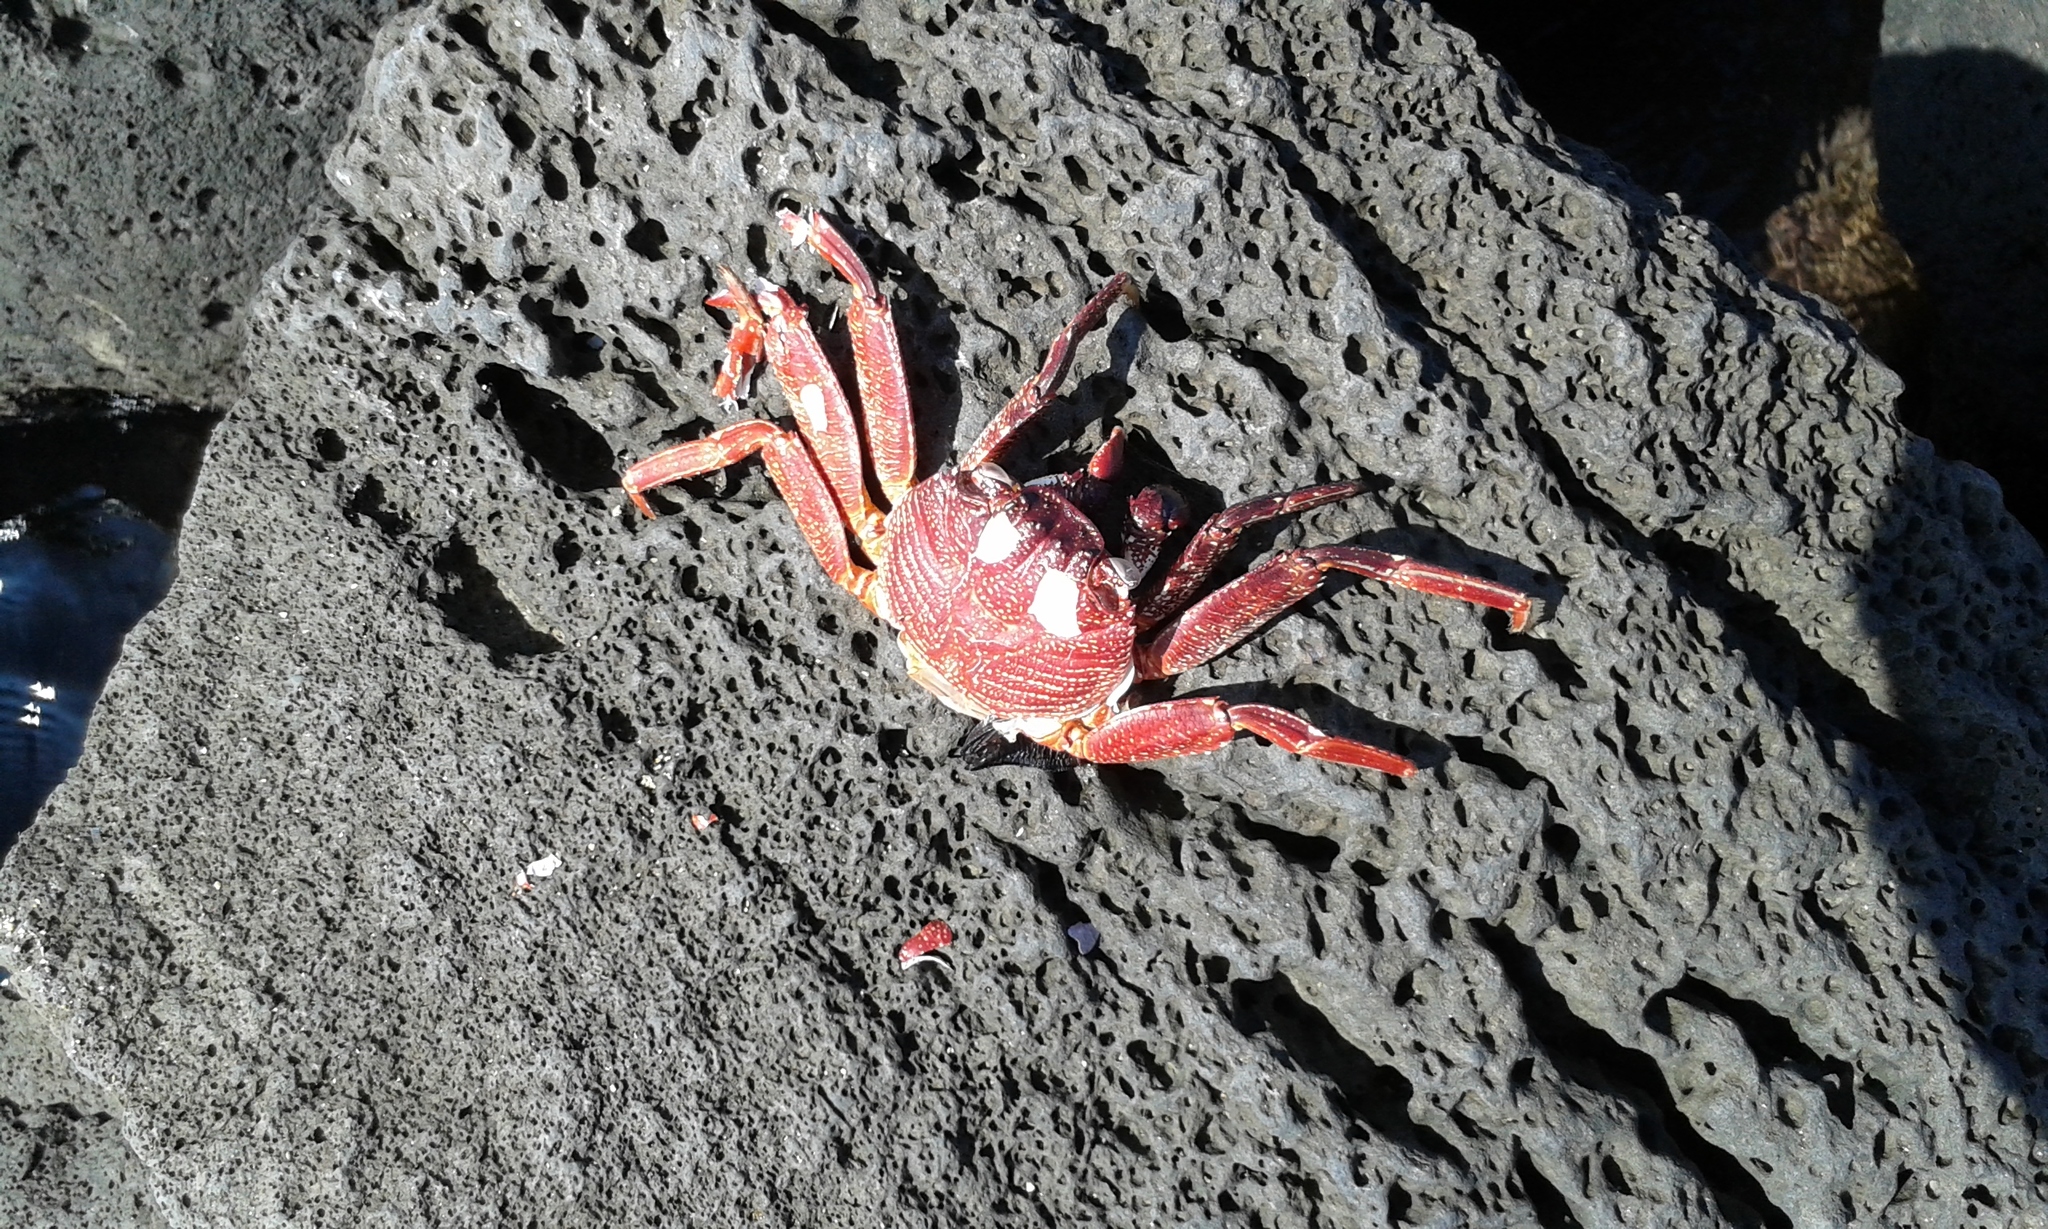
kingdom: Animalia
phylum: Arthropoda
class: Malacostraca
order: Decapoda
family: Grapsidae
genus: Grapsus
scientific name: Grapsus tenuicrustatus
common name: Natal lightfoot crab
